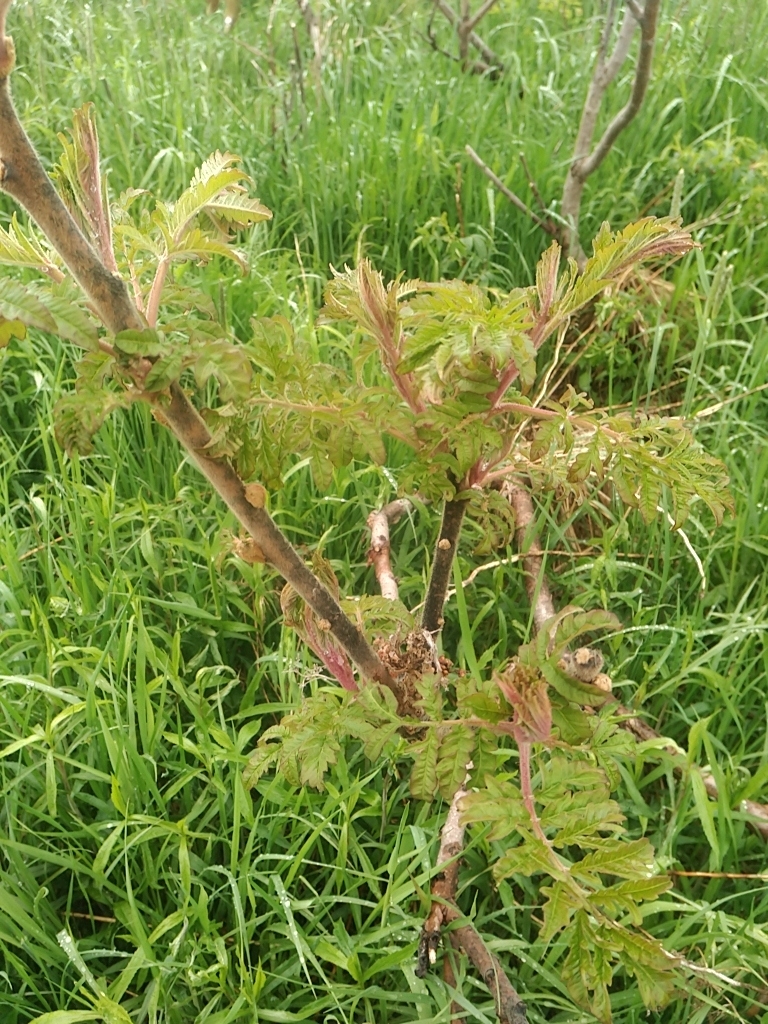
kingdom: Plantae
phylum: Tracheophyta
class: Magnoliopsida
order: Sapindales
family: Anacardiaceae
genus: Rhus
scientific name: Rhus typhina
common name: Staghorn sumac
